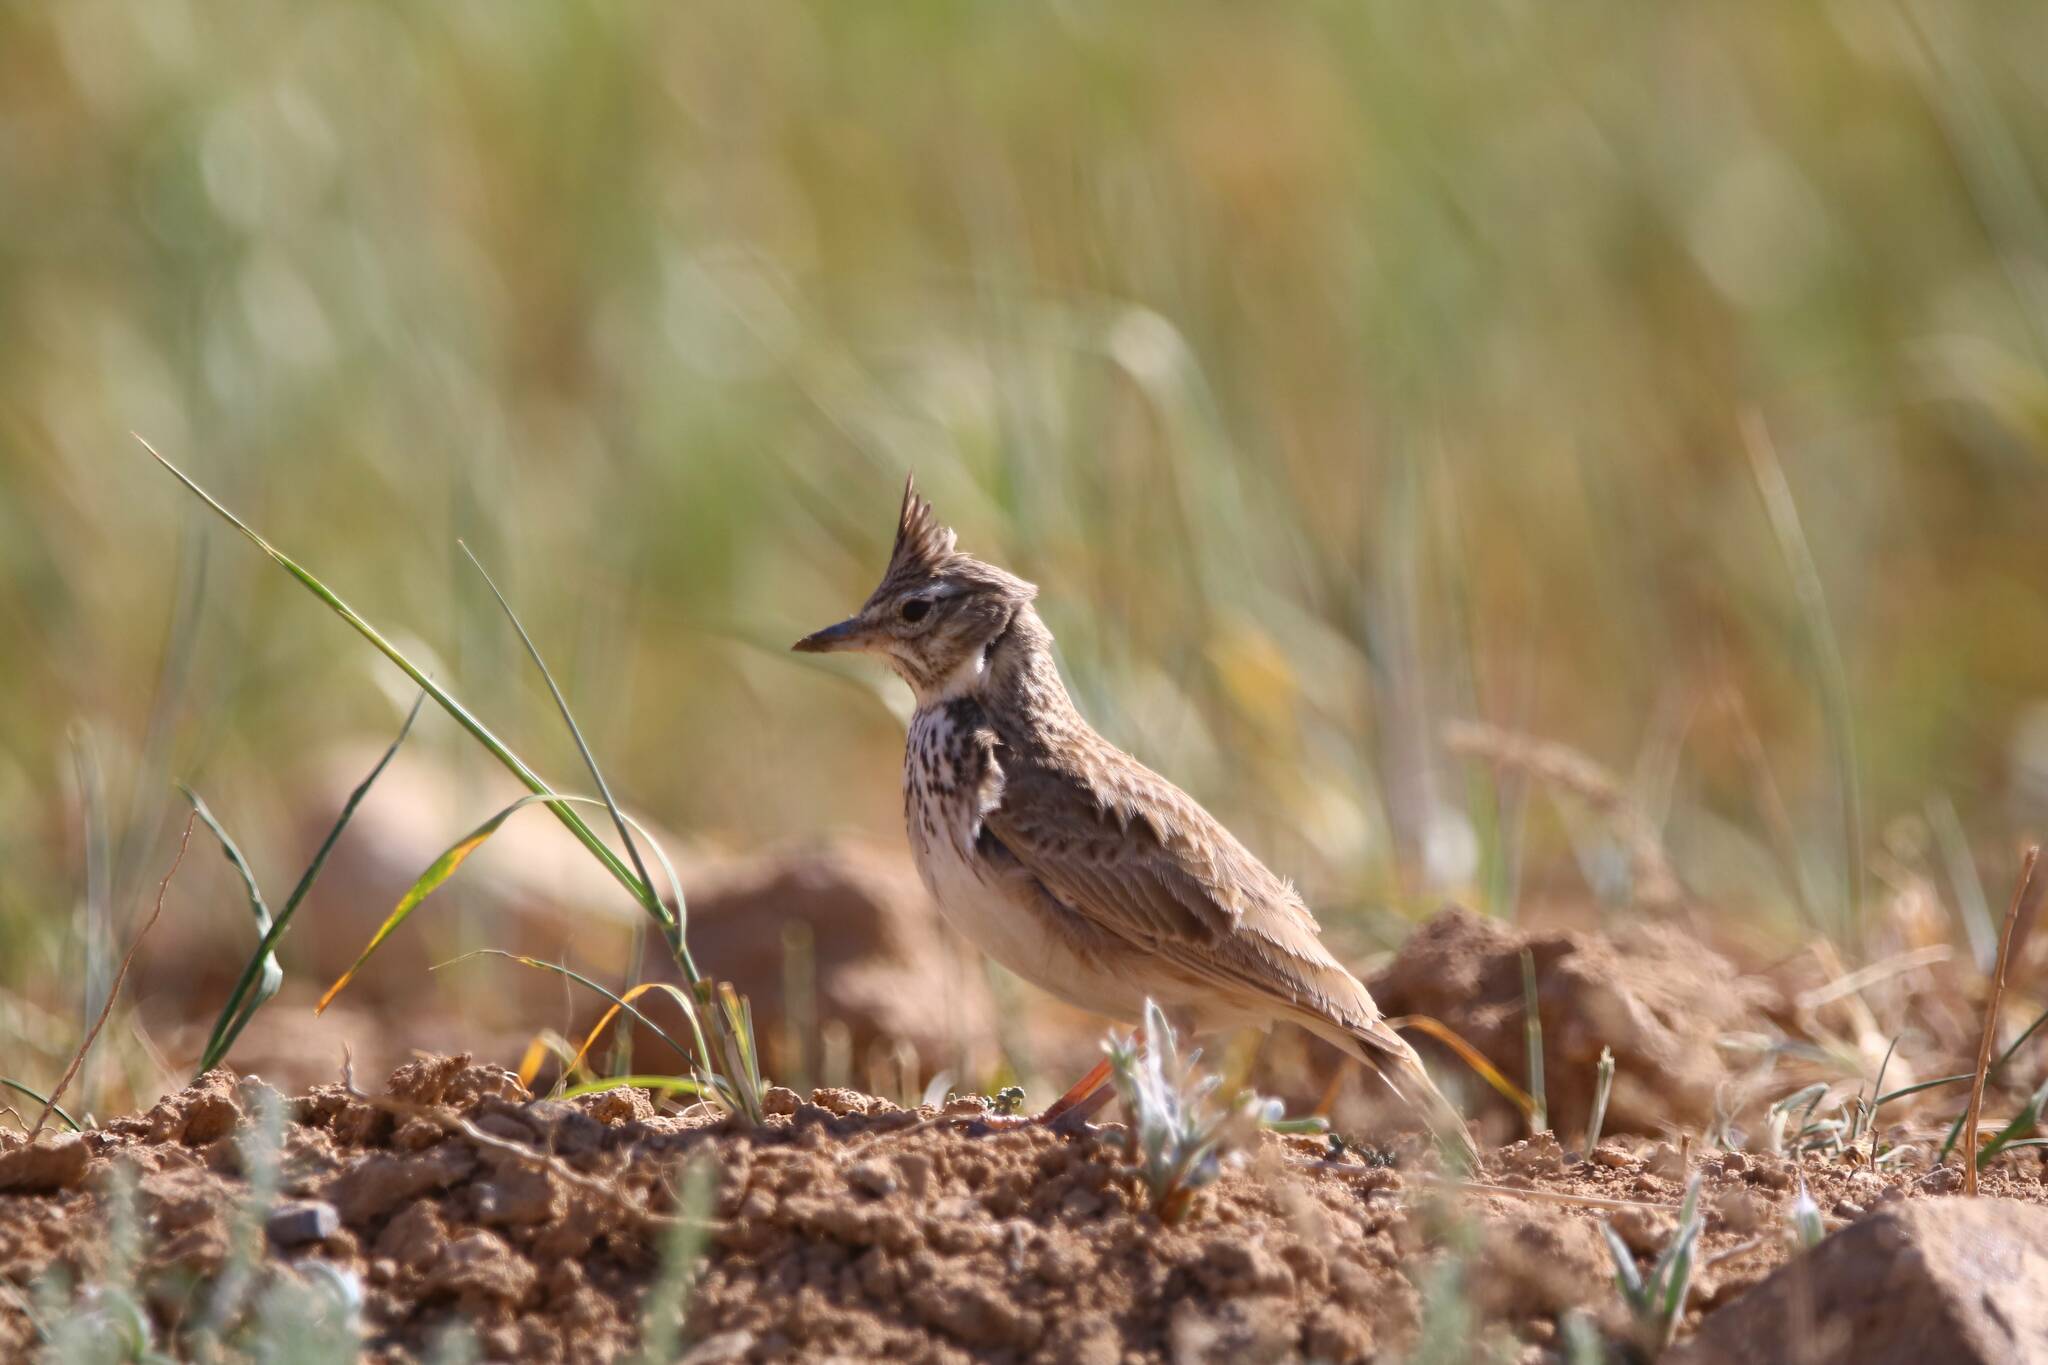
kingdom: Animalia
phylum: Chordata
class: Aves
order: Passeriformes
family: Alaudidae
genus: Galerida
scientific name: Galerida theklae
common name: Thekla lark
